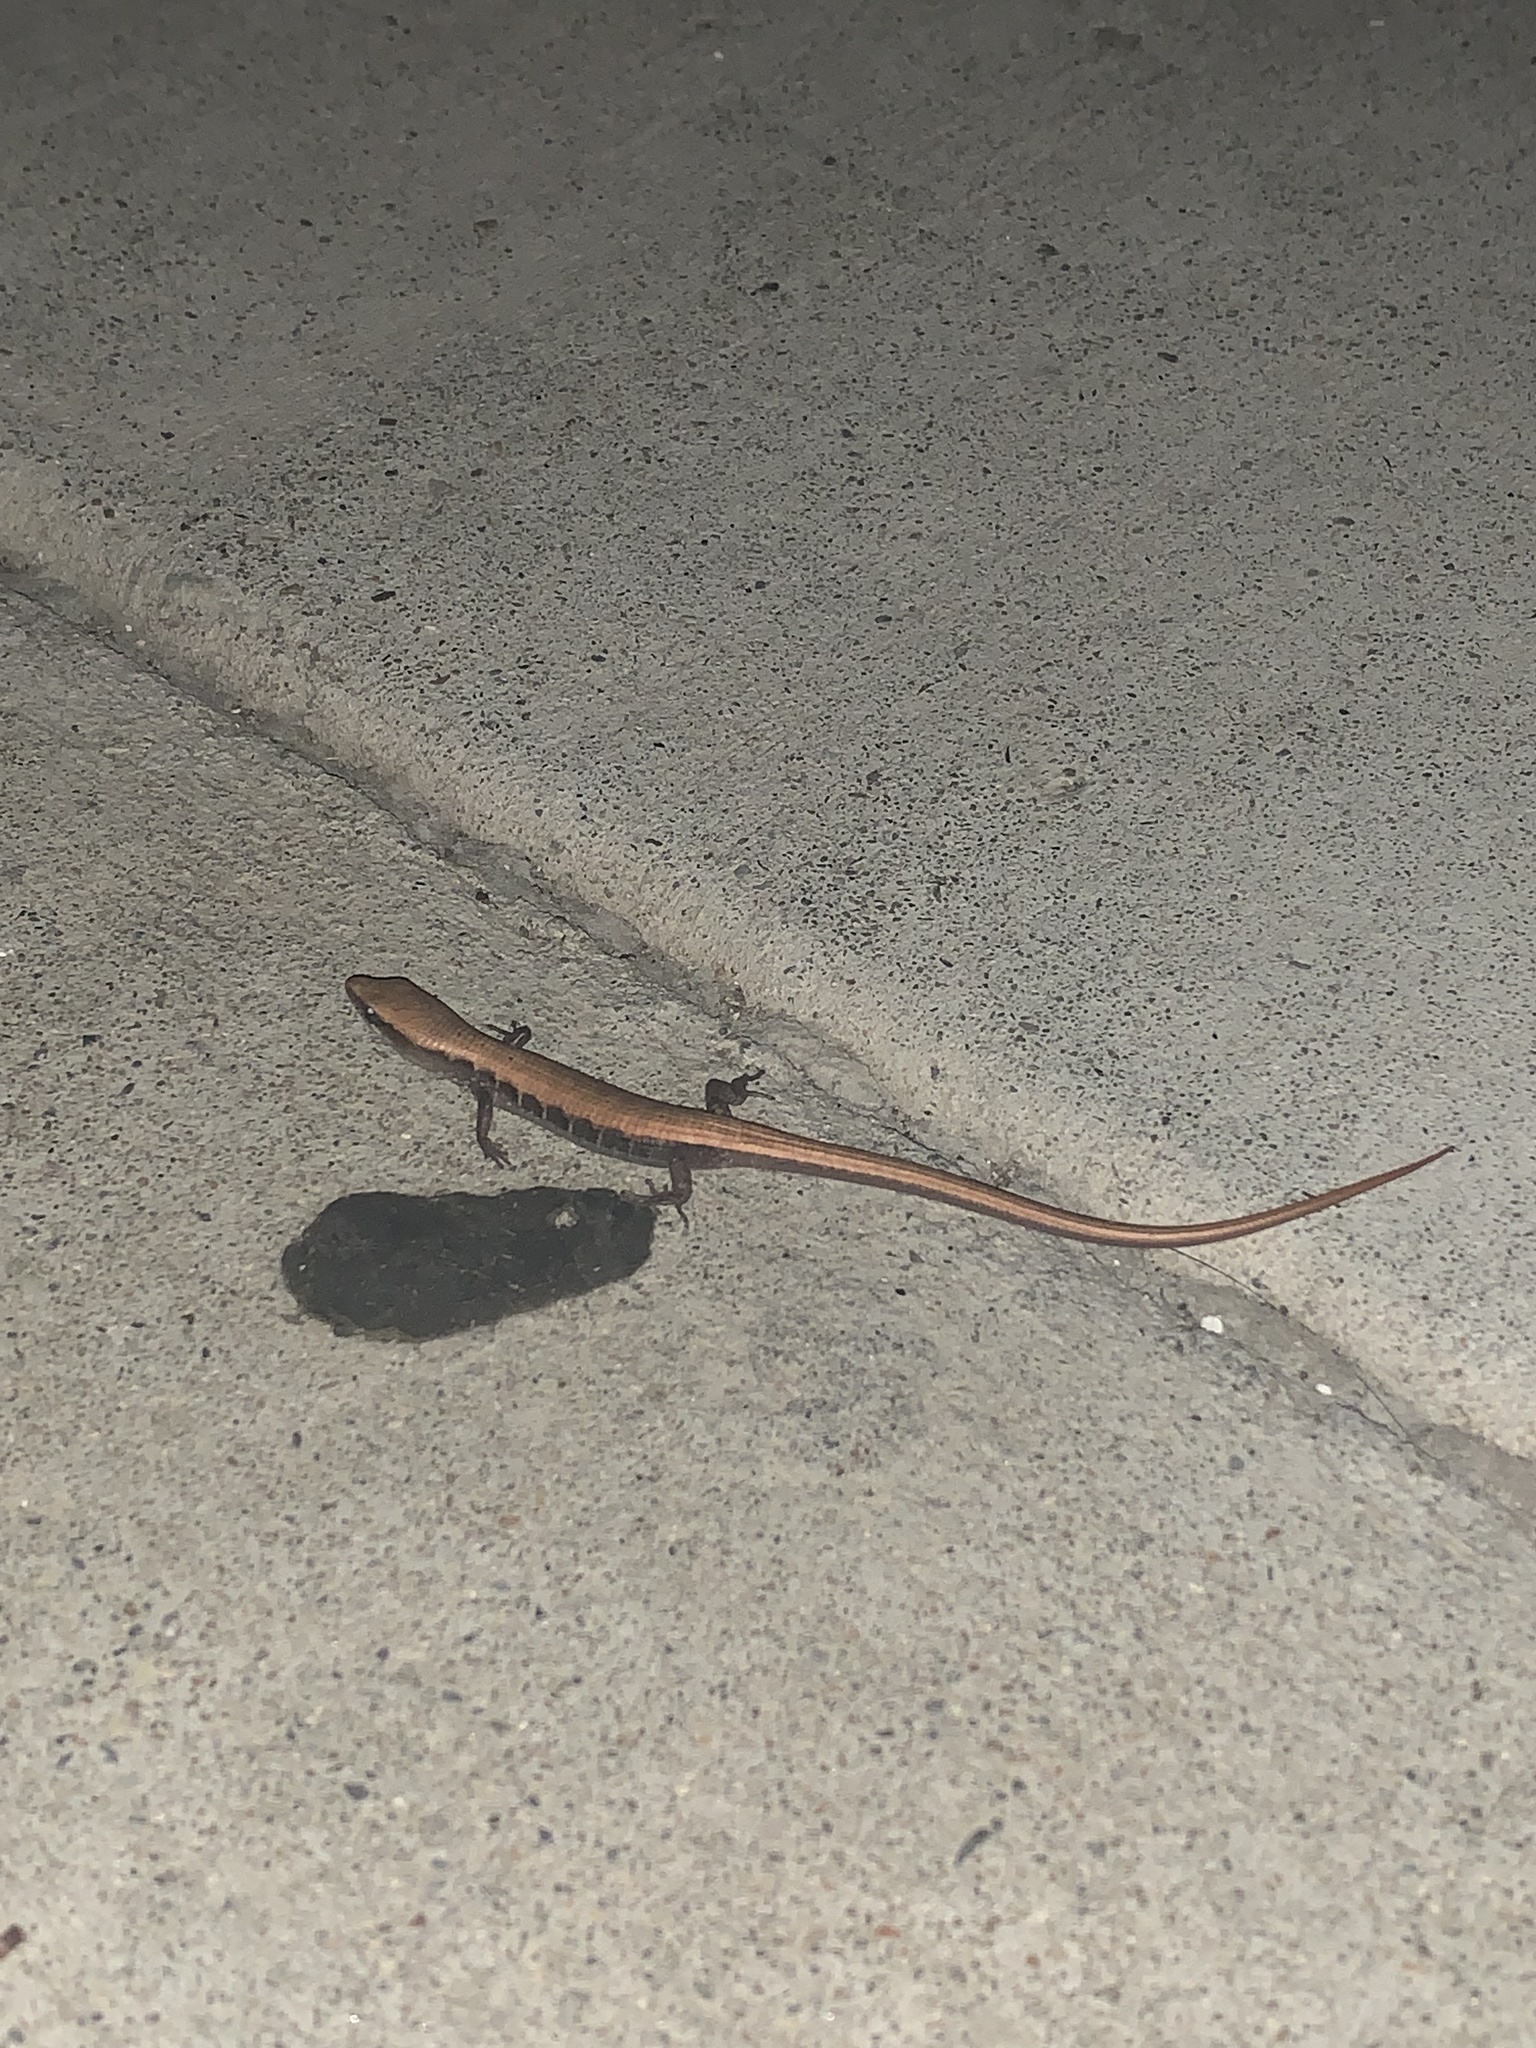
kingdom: Animalia
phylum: Chordata
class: Squamata
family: Anguidae
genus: Elgaria
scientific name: Elgaria multicarinata
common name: Southern alligator lizard
